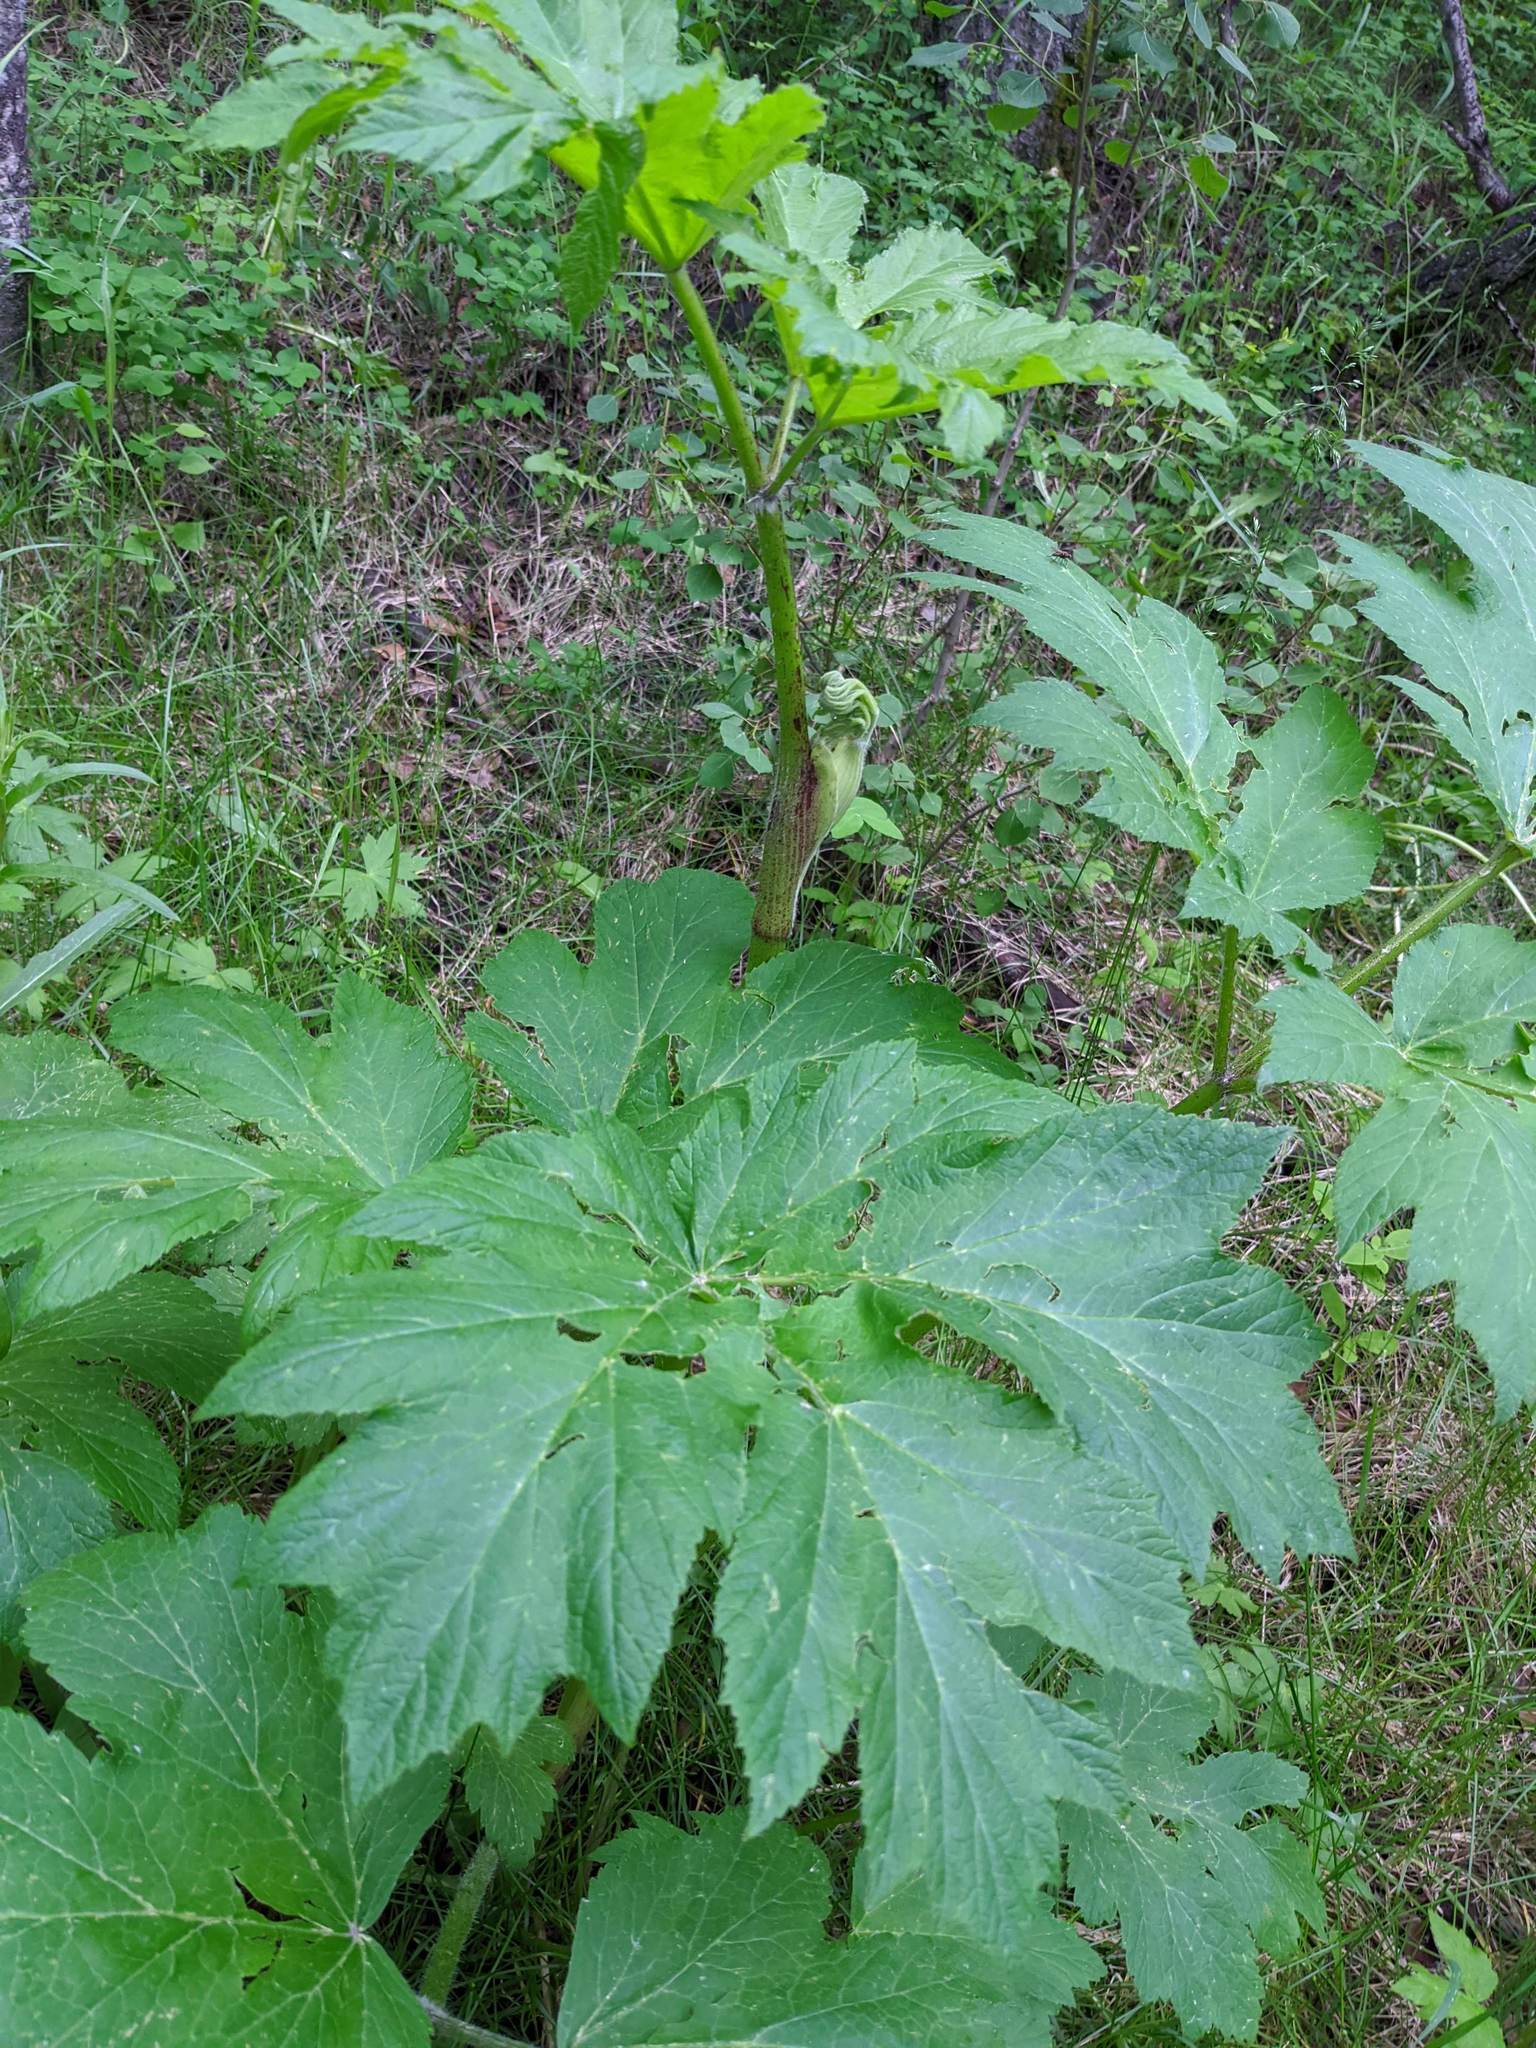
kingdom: Plantae
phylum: Tracheophyta
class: Magnoliopsida
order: Apiales
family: Apiaceae
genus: Heracleum
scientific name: Heracleum maximum
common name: American cow parsnip
